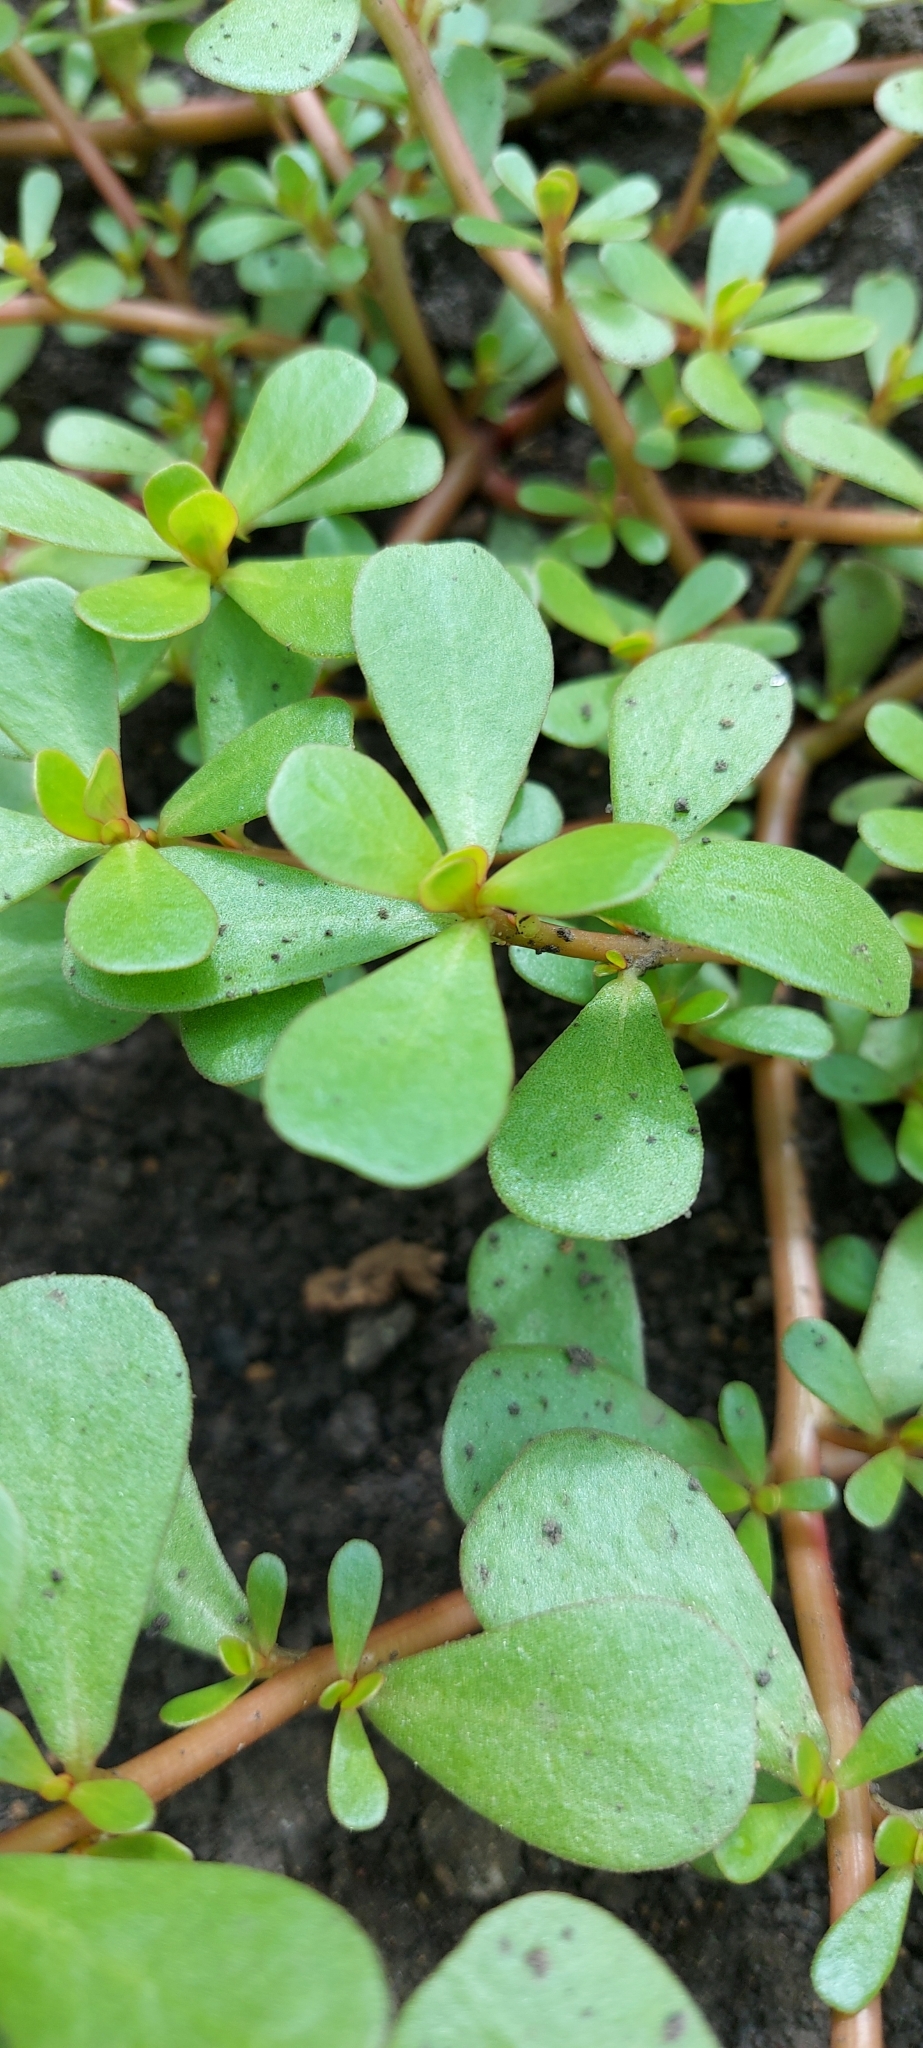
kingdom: Plantae
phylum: Tracheophyta
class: Magnoliopsida
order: Caryophyllales
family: Portulacaceae
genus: Portulaca
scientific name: Portulaca oleracea
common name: Common purslane
